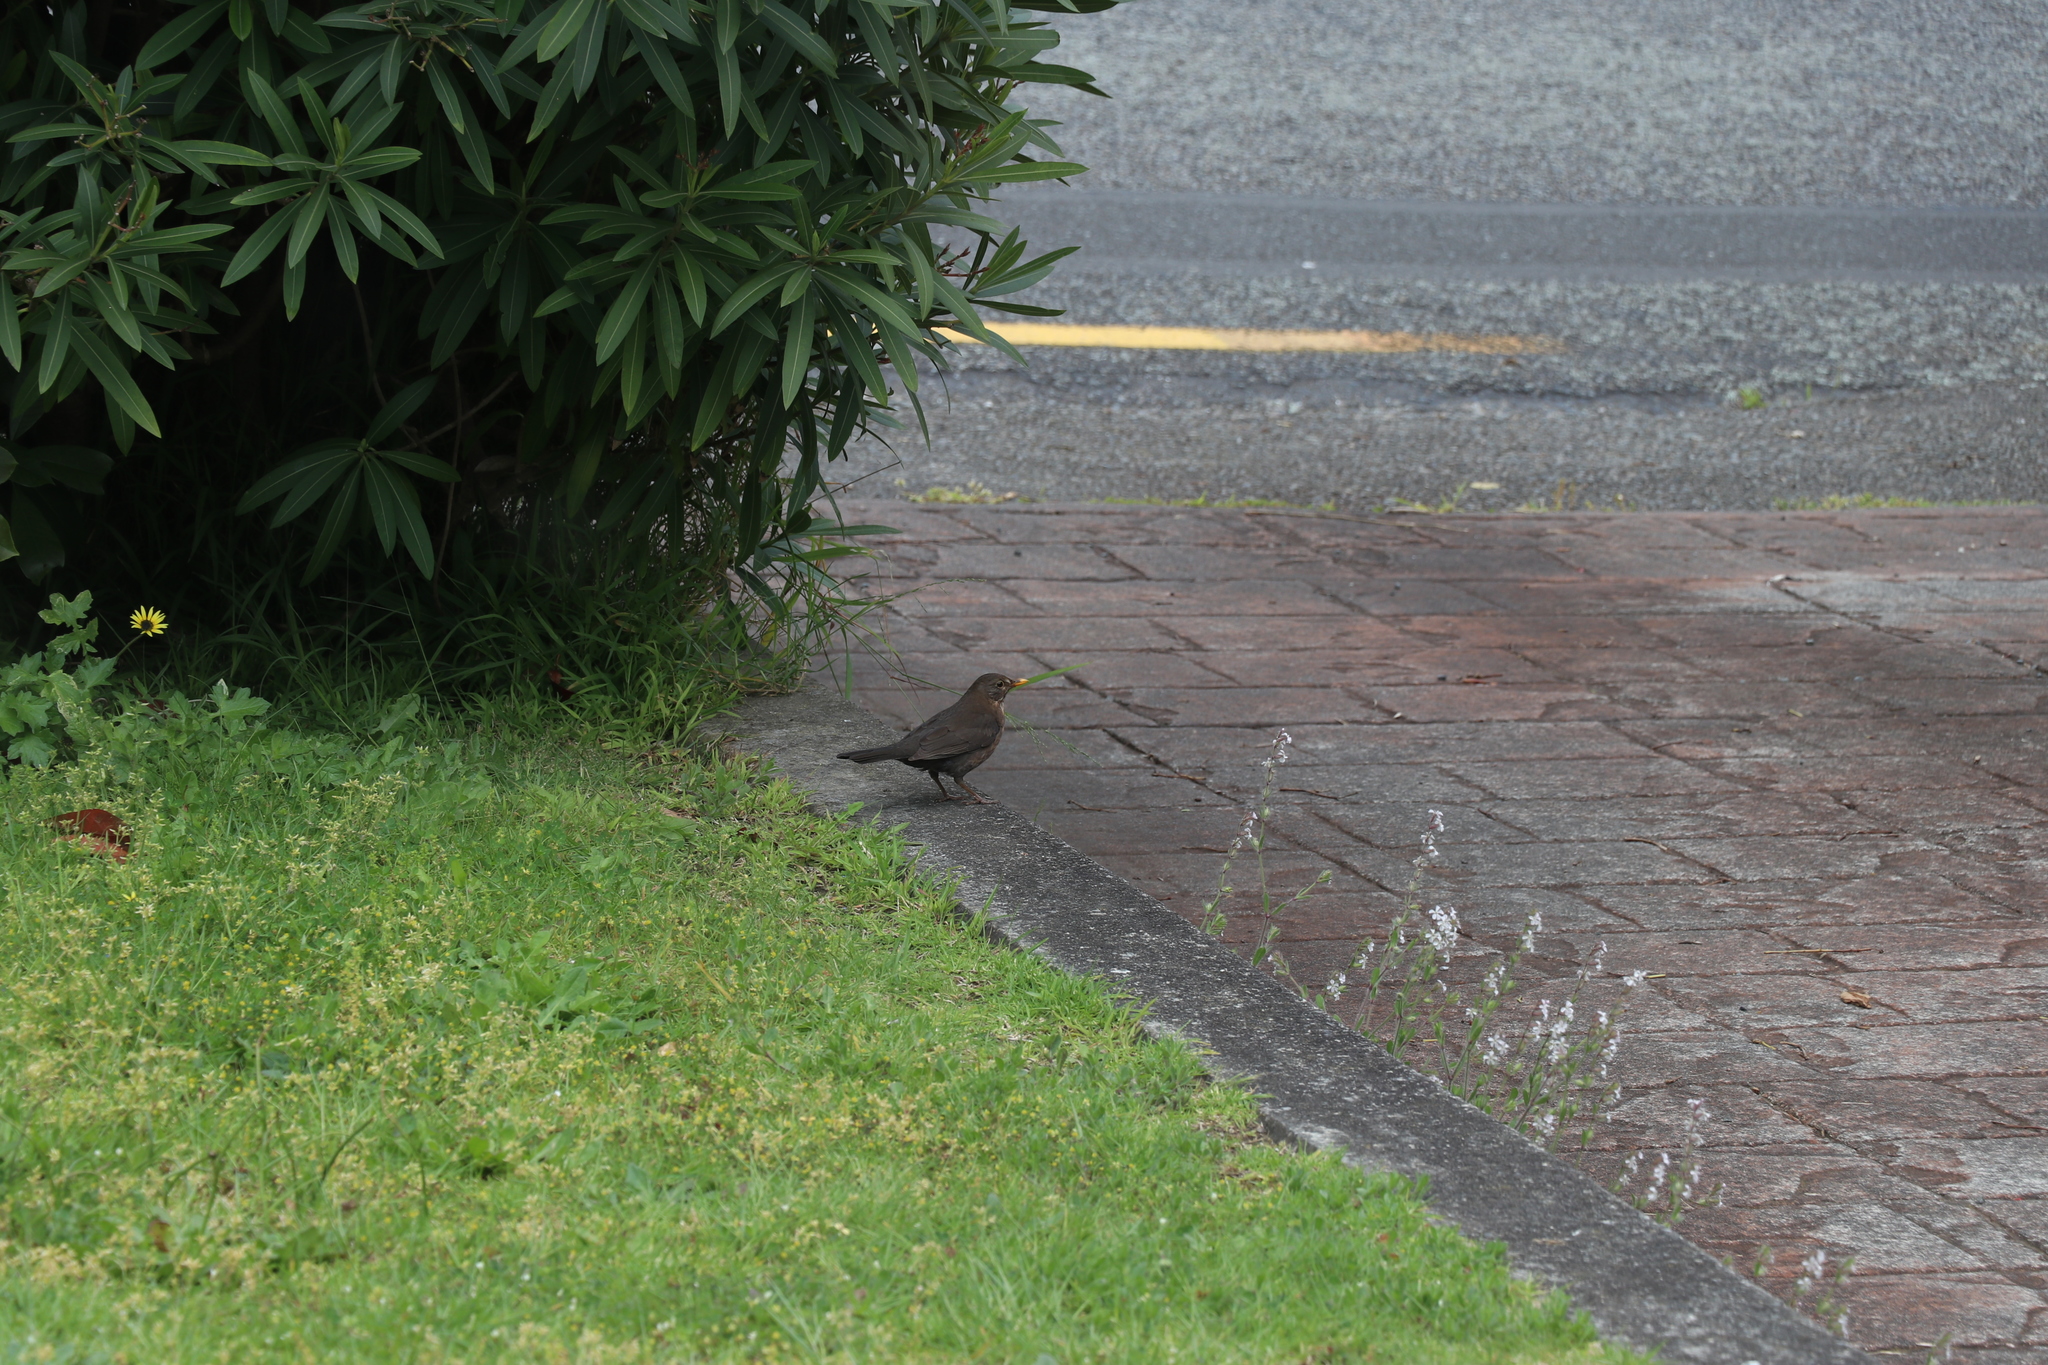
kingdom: Animalia
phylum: Chordata
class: Aves
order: Passeriformes
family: Turdidae
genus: Turdus
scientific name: Turdus merula
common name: Common blackbird
